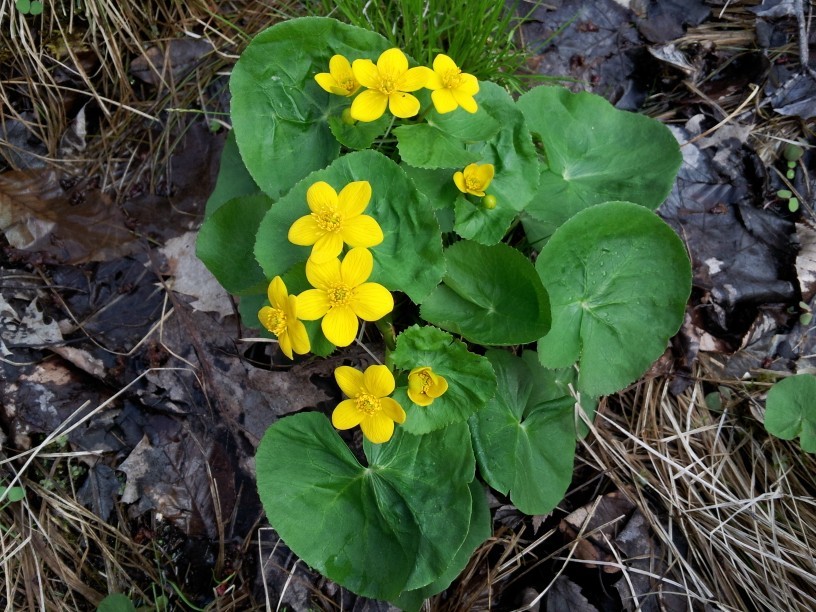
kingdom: Plantae
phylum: Tracheophyta
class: Magnoliopsida
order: Ranunculales
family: Ranunculaceae
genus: Caltha
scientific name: Caltha palustris
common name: Marsh marigold
